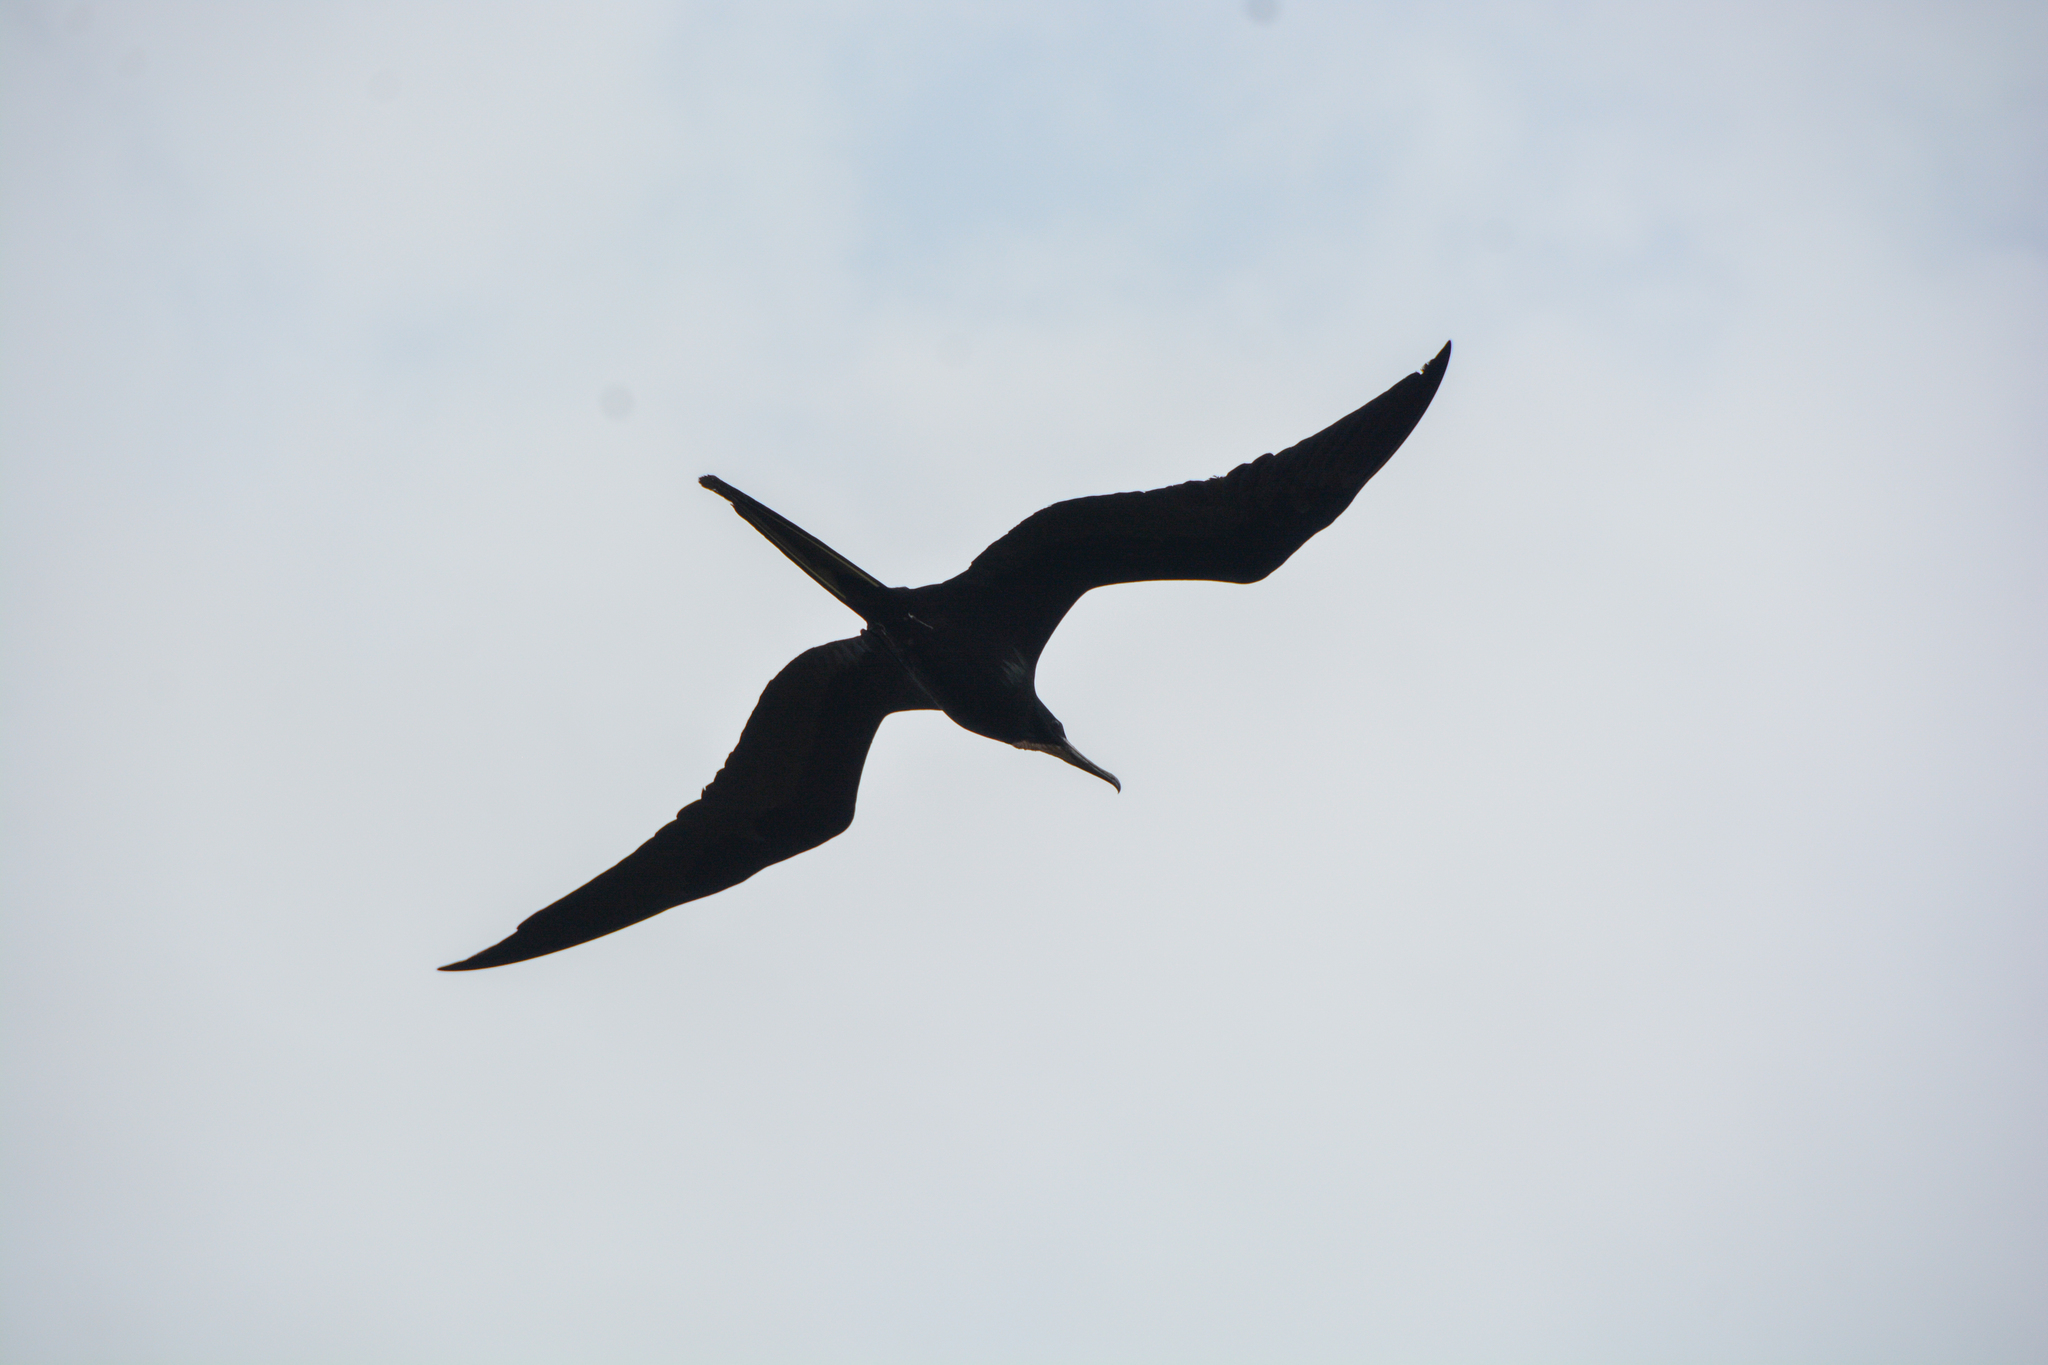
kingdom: Animalia
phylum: Chordata
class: Aves
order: Suliformes
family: Fregatidae
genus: Fregata
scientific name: Fregata magnificens
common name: Magnificent frigatebird
